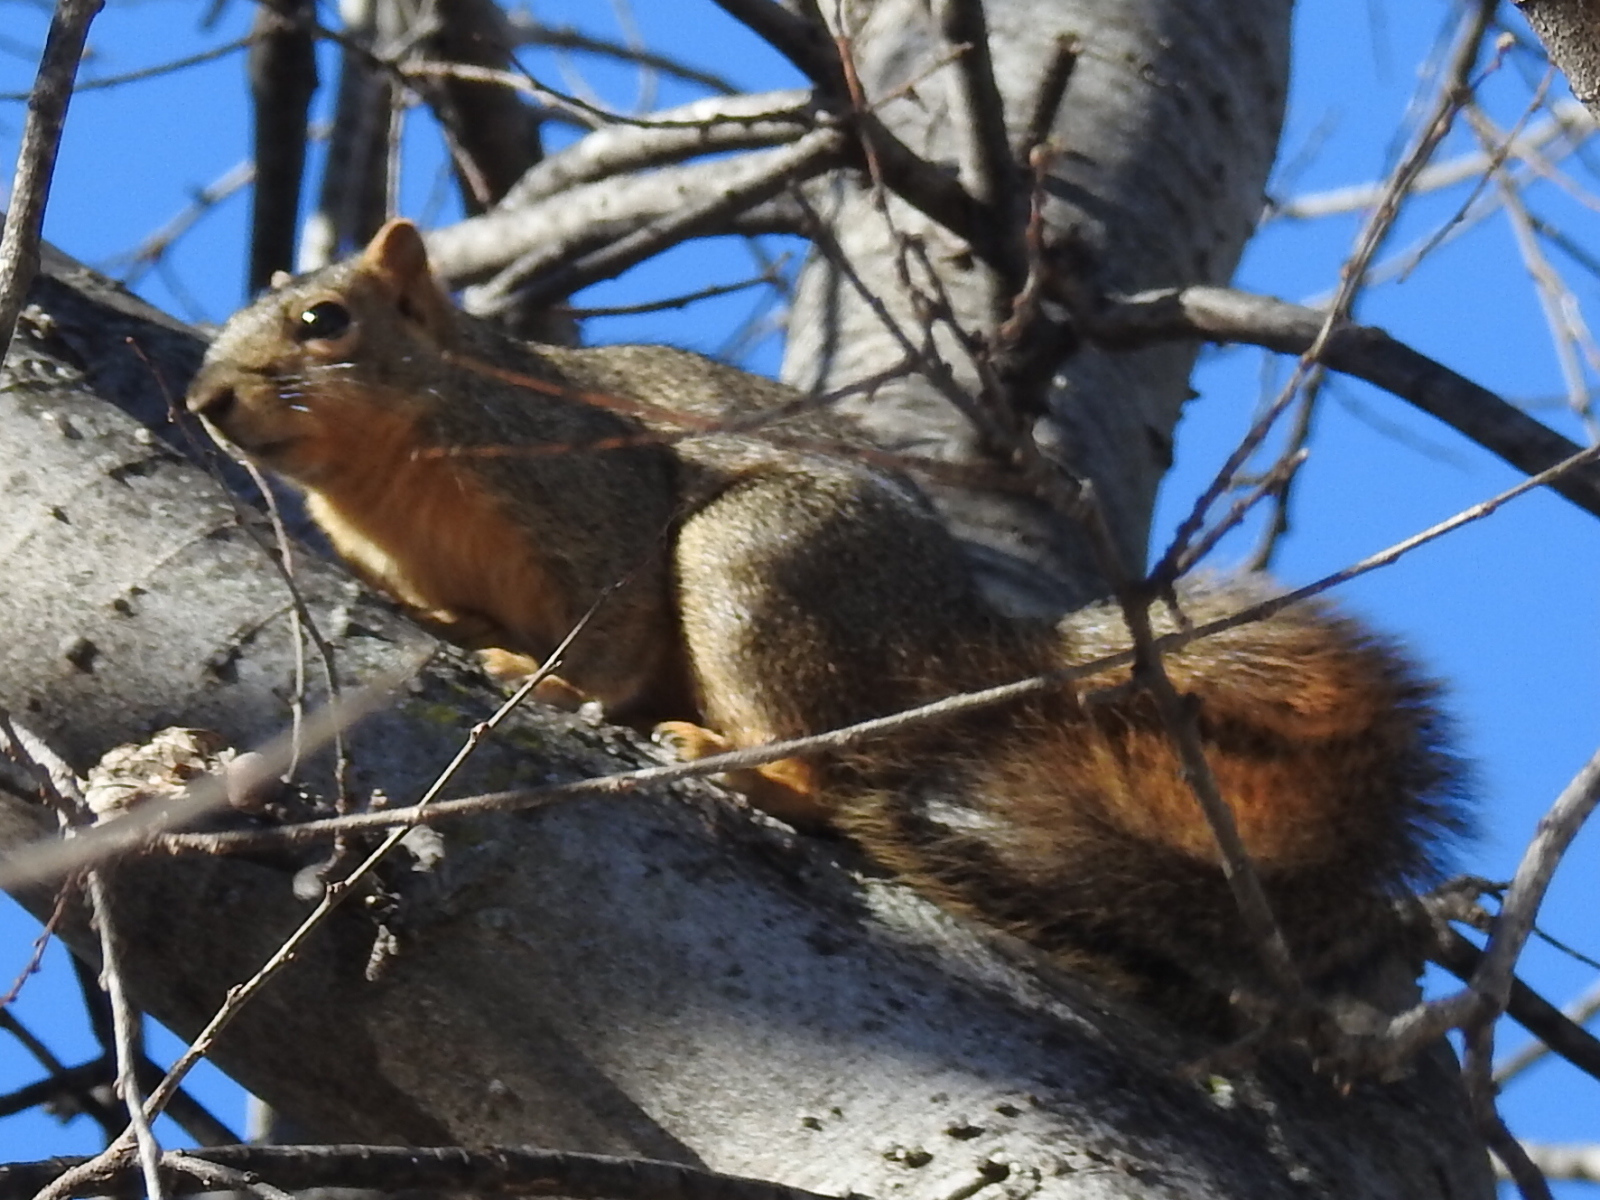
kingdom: Animalia
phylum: Chordata
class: Mammalia
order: Rodentia
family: Sciuridae
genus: Sciurus
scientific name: Sciurus niger
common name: Fox squirrel
